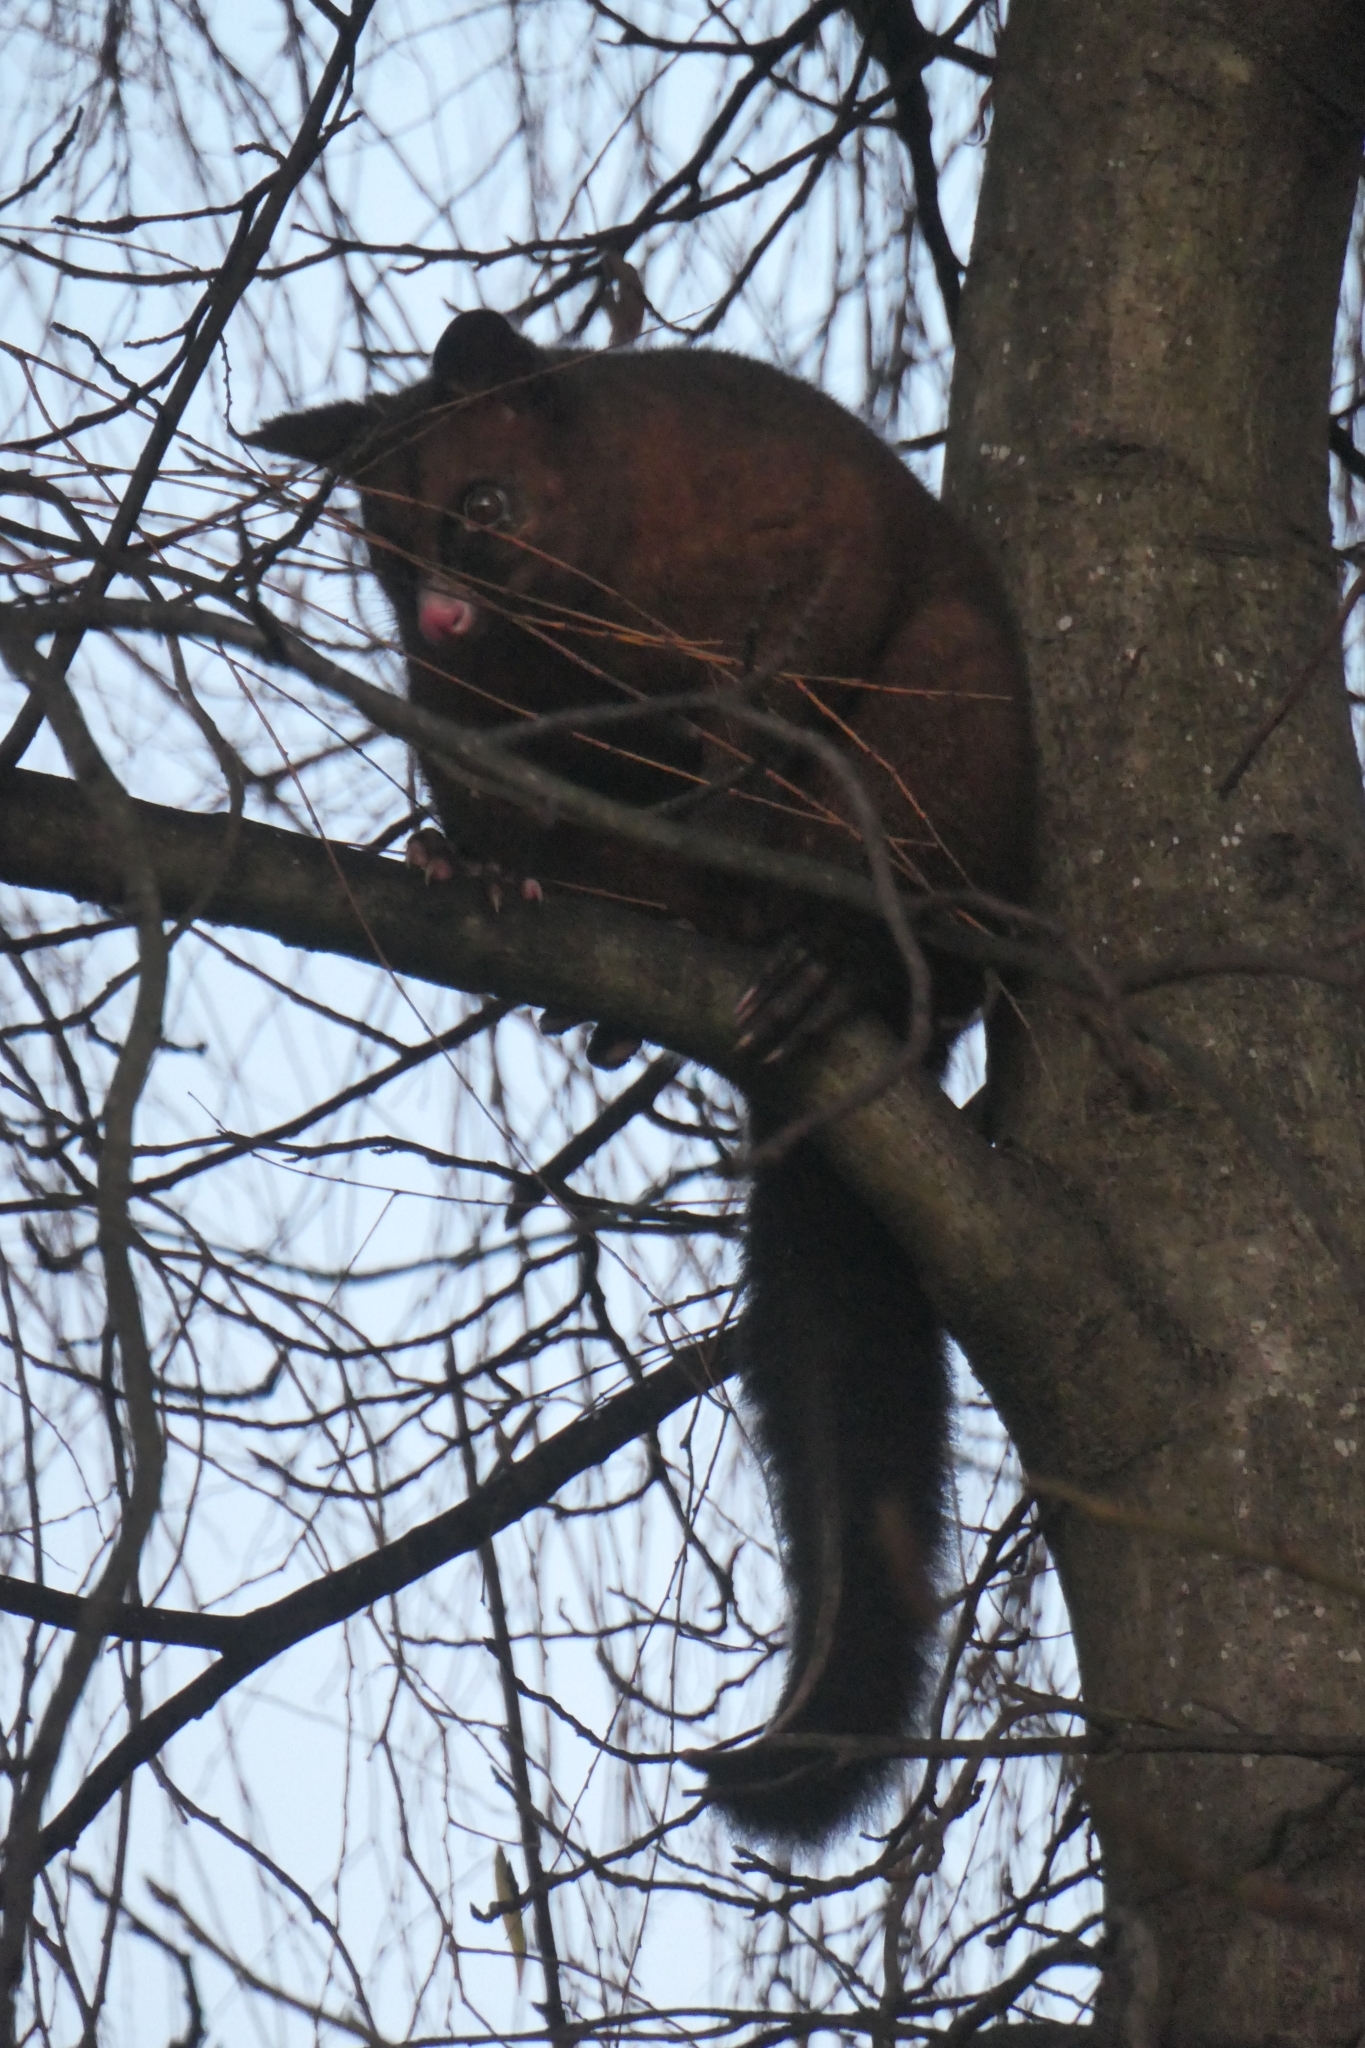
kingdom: Animalia
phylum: Chordata
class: Mammalia
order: Diprotodontia
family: Phalangeridae
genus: Trichosurus
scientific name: Trichosurus vulpecula
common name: Common brushtail
